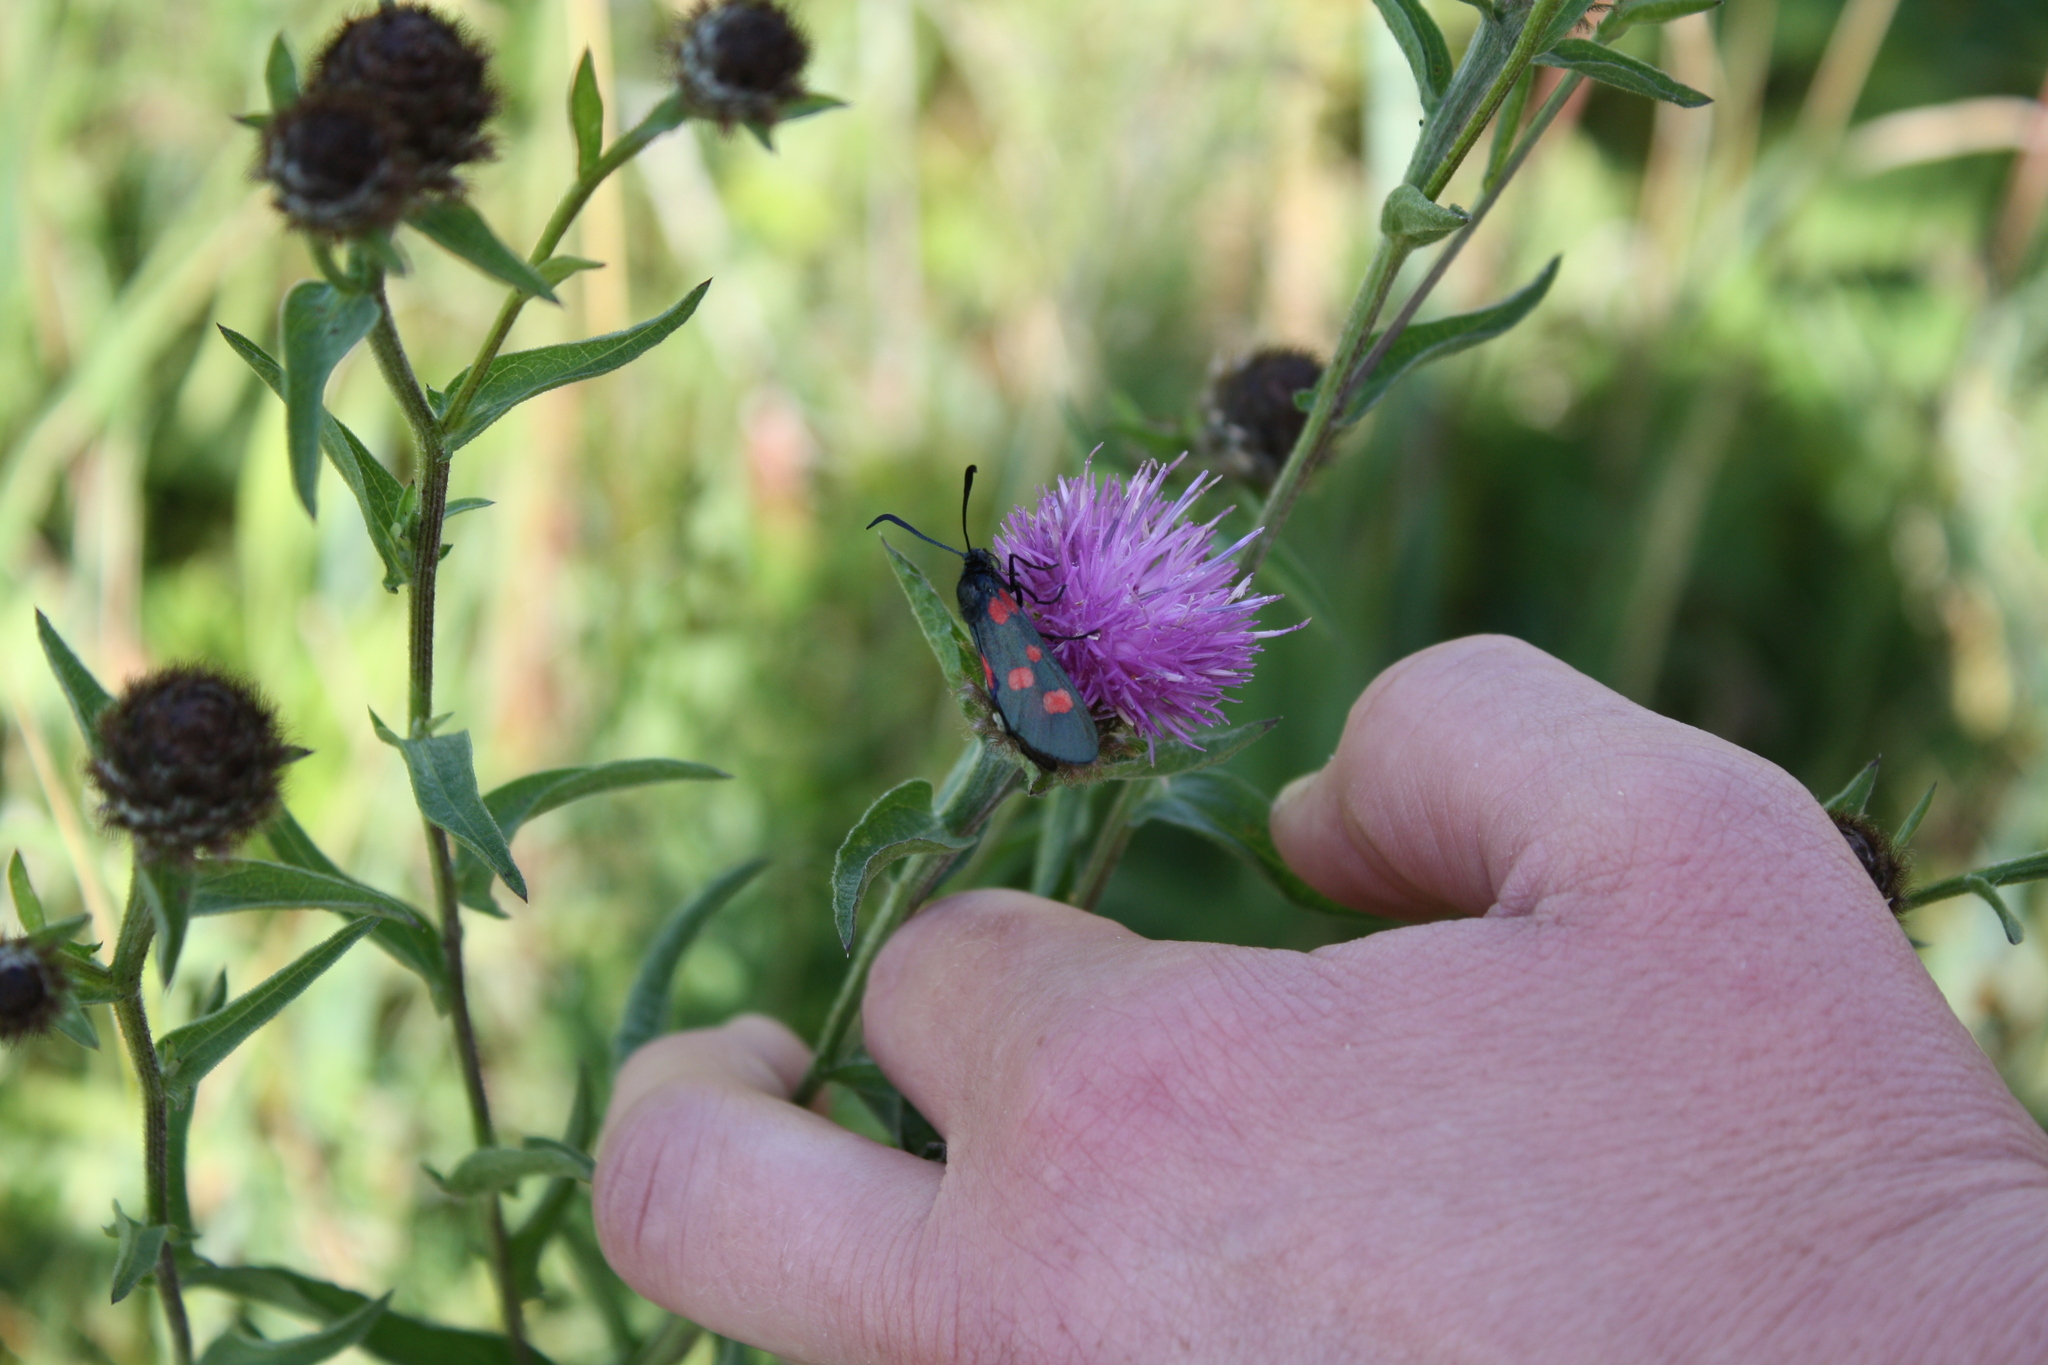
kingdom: Animalia
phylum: Arthropoda
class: Insecta
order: Lepidoptera
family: Zygaenidae
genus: Zygaena
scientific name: Zygaena lonicerae
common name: Narrow-bordered five-spot burnet
